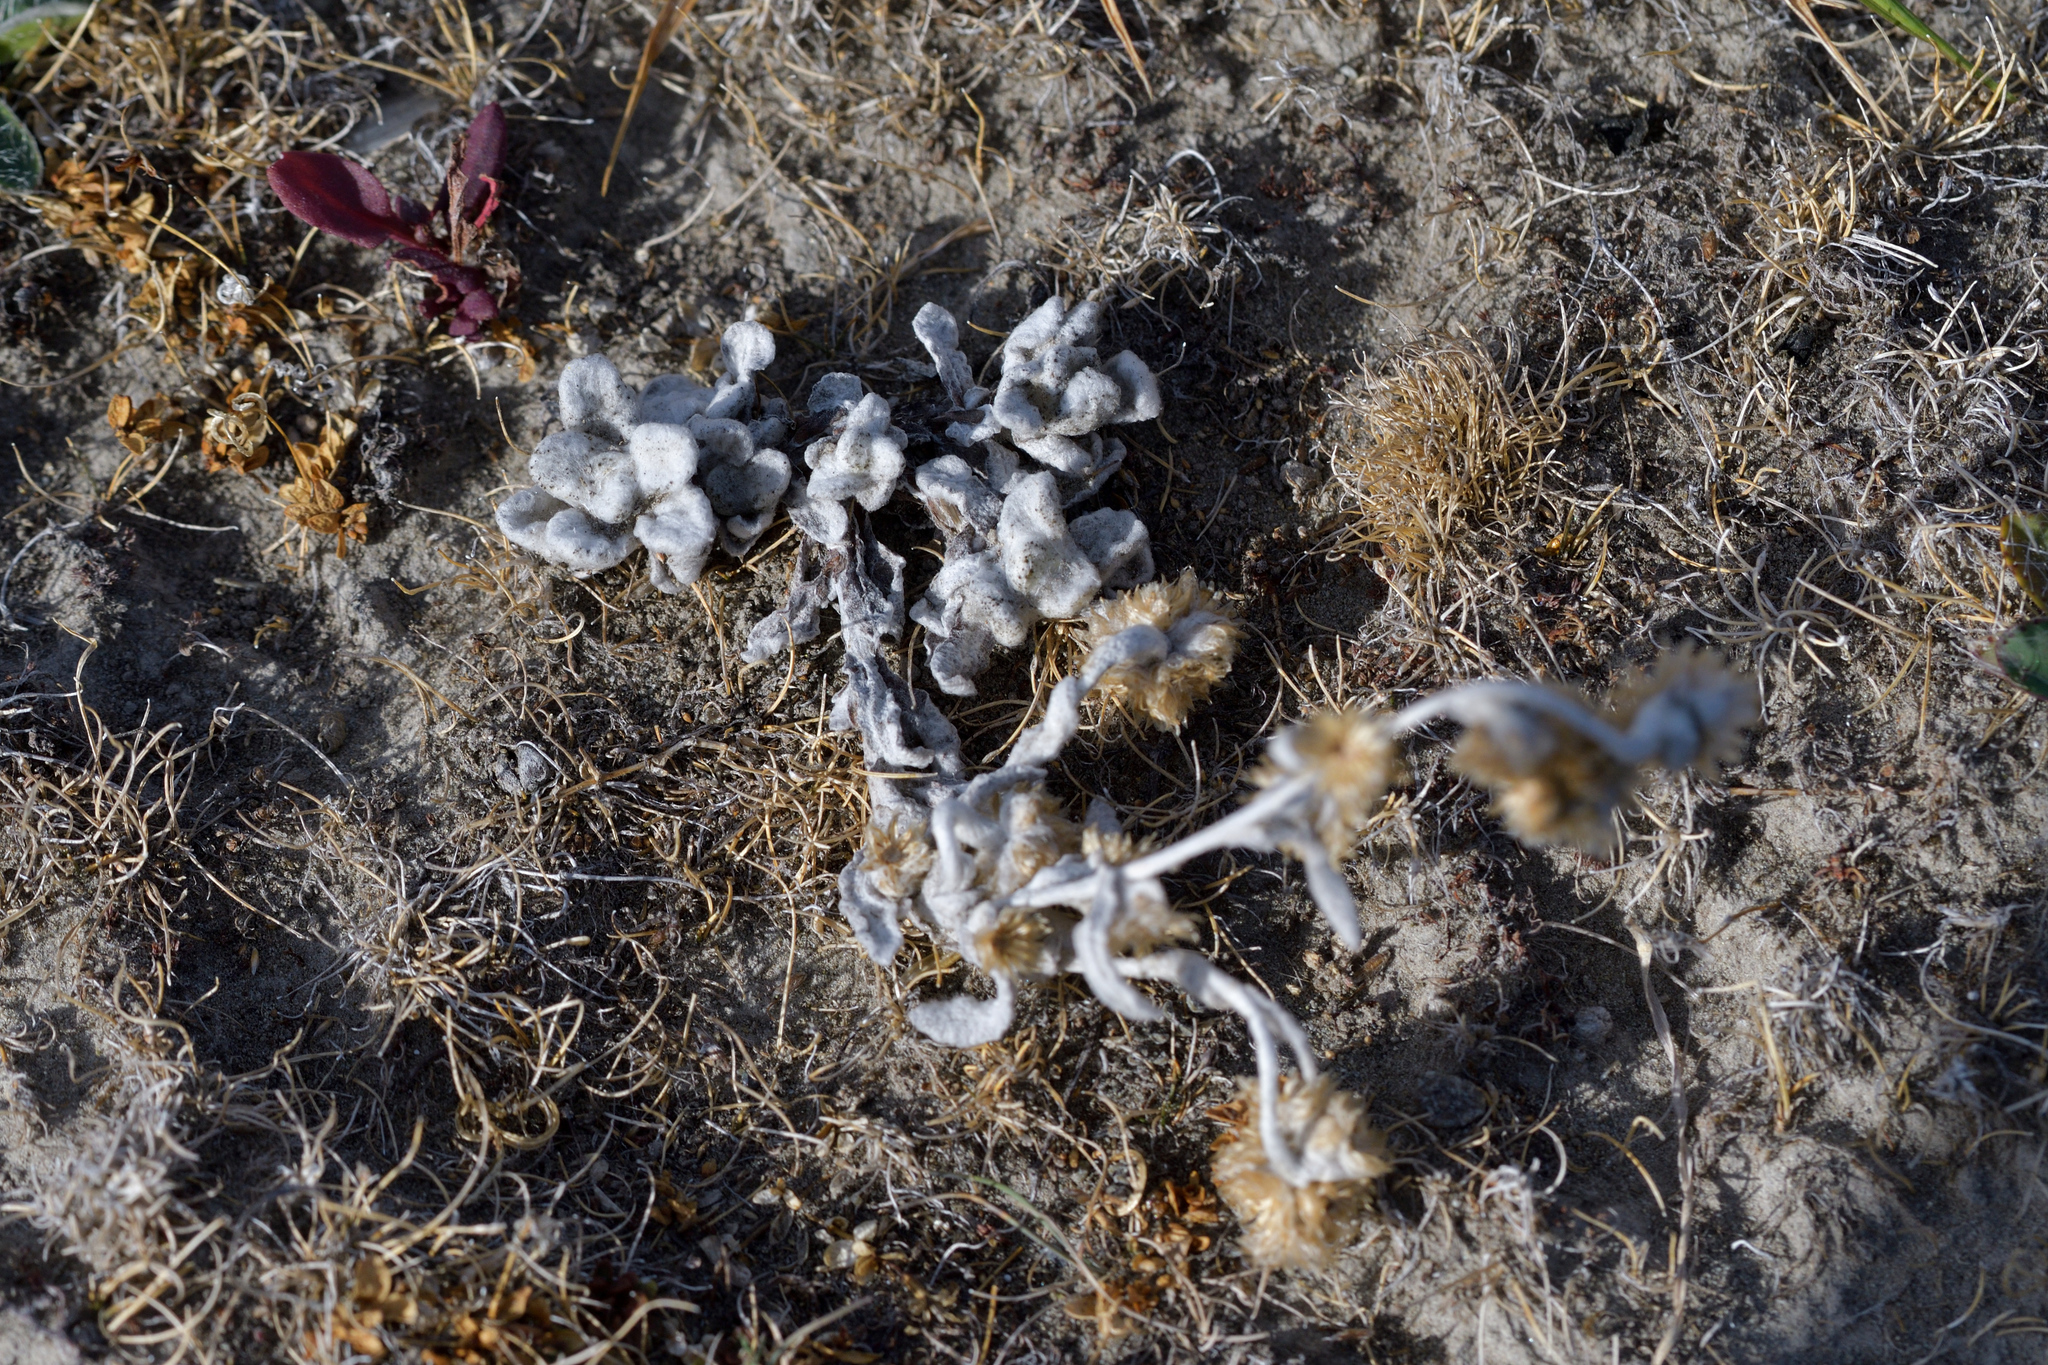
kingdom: Plantae
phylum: Tracheophyta
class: Magnoliopsida
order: Asterales
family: Asteraceae
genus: Helichrysum
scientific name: Helichrysum luteoalbum
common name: Daisy
